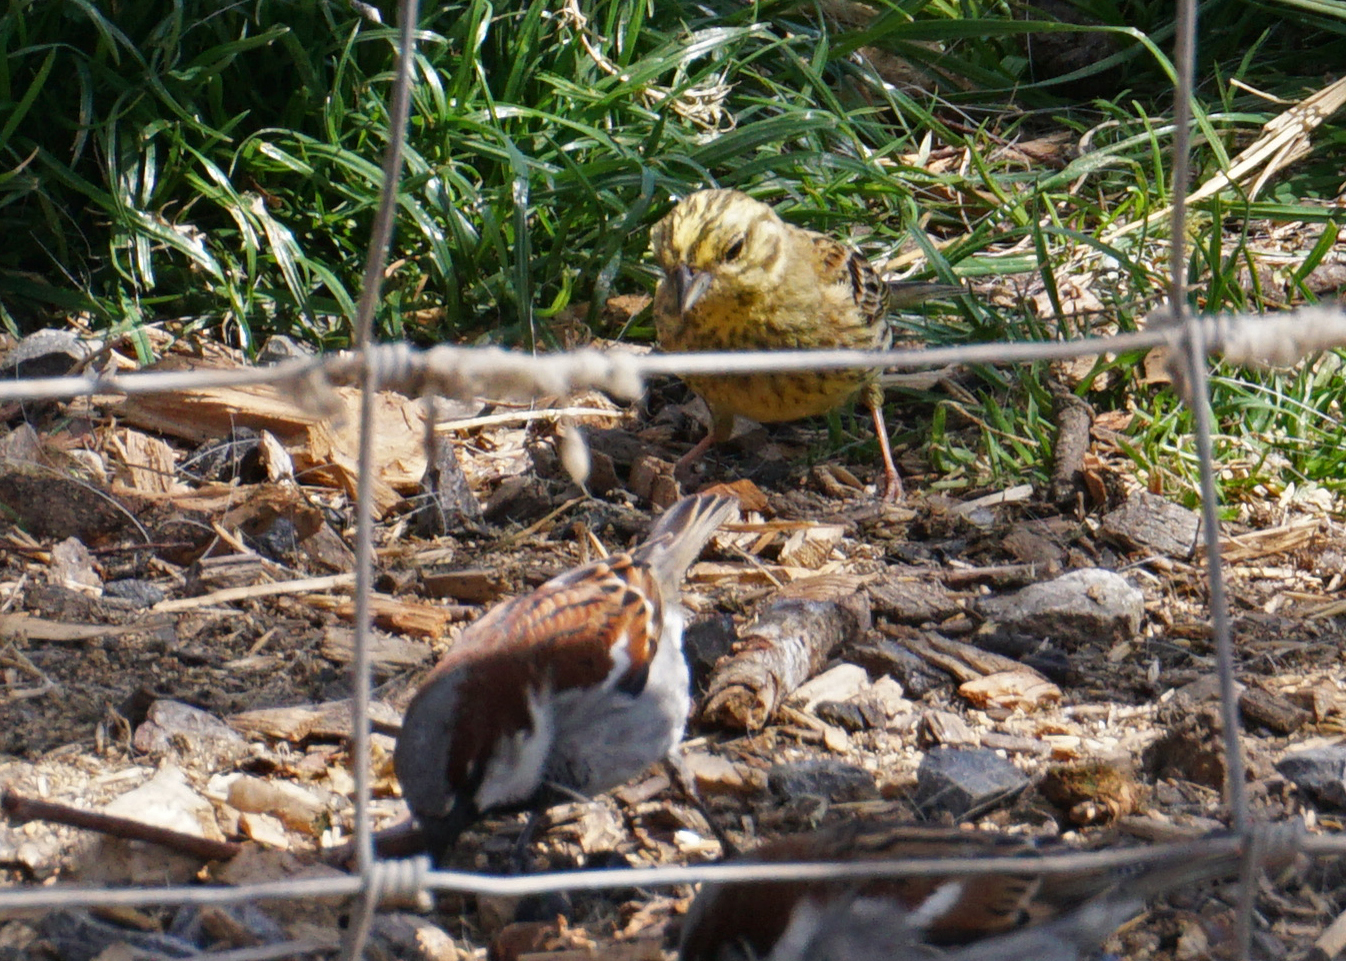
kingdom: Animalia
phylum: Chordata
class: Aves
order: Passeriformes
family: Emberizidae
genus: Emberiza
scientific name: Emberiza citrinella
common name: Yellowhammer
